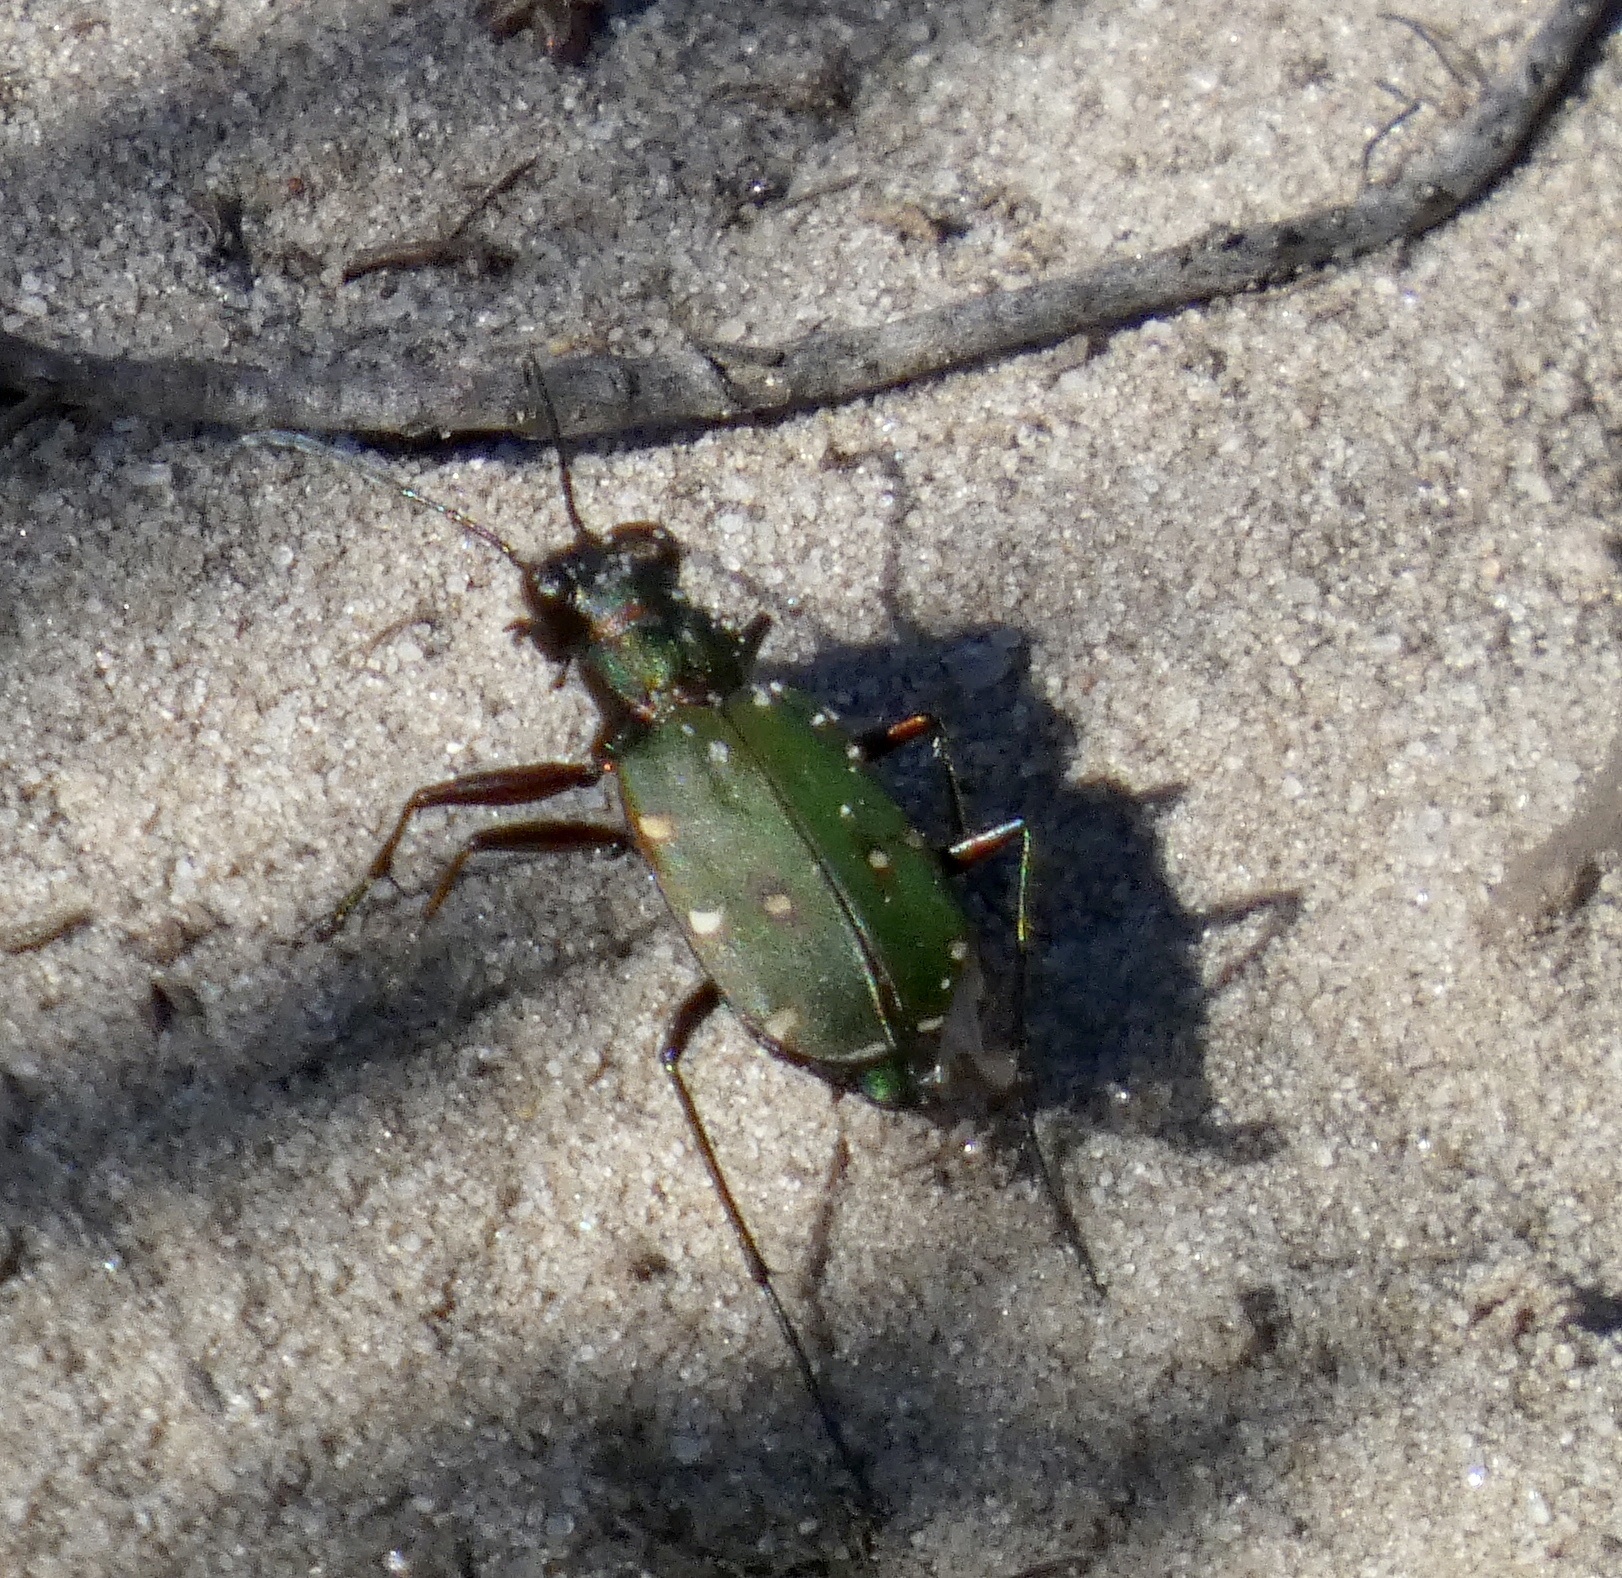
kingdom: Animalia
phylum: Arthropoda
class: Insecta
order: Coleoptera
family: Carabidae
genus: Cicindela
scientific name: Cicindela campestris
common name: Common tiger beetle
